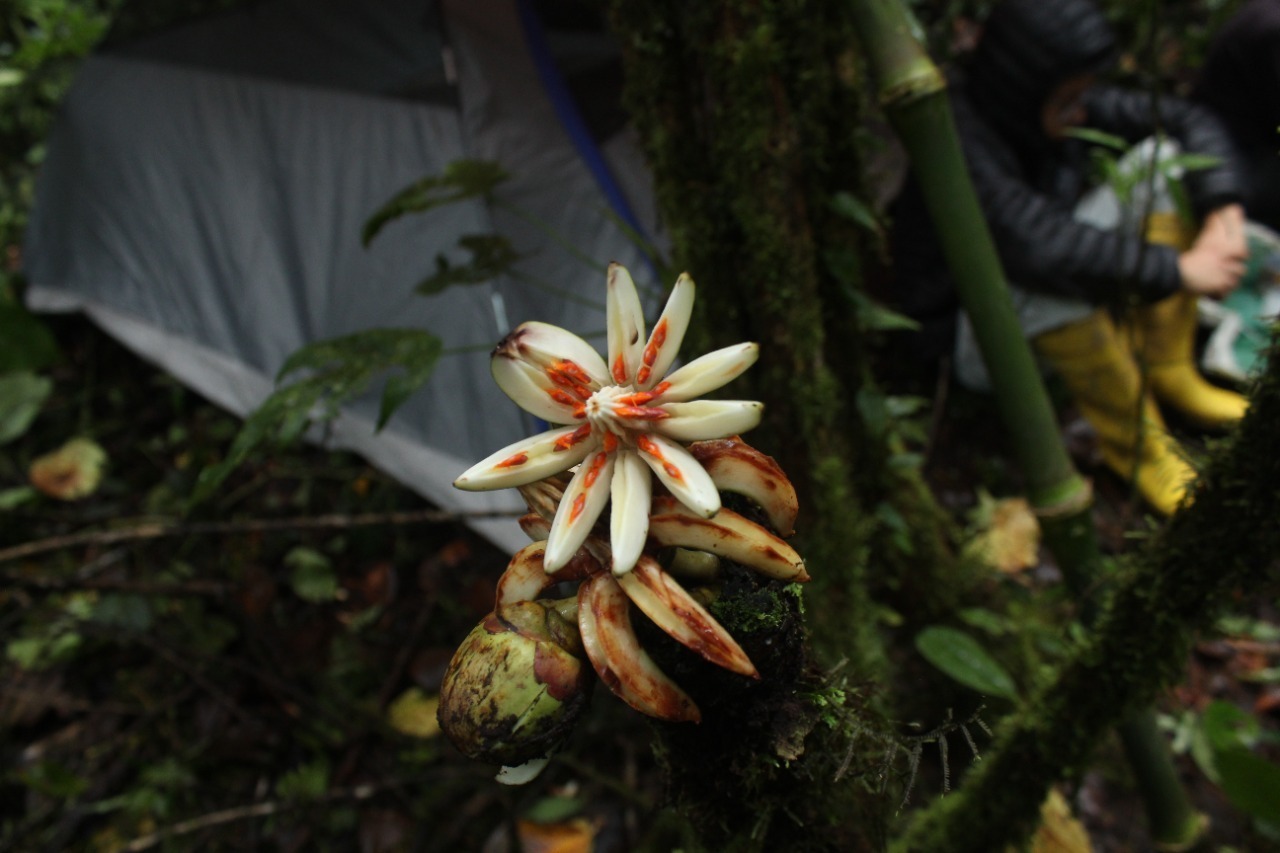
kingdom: Plantae
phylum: Tracheophyta
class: Magnoliopsida
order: Malpighiales
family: Clusiaceae
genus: Clusia
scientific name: Clusia multiflora
